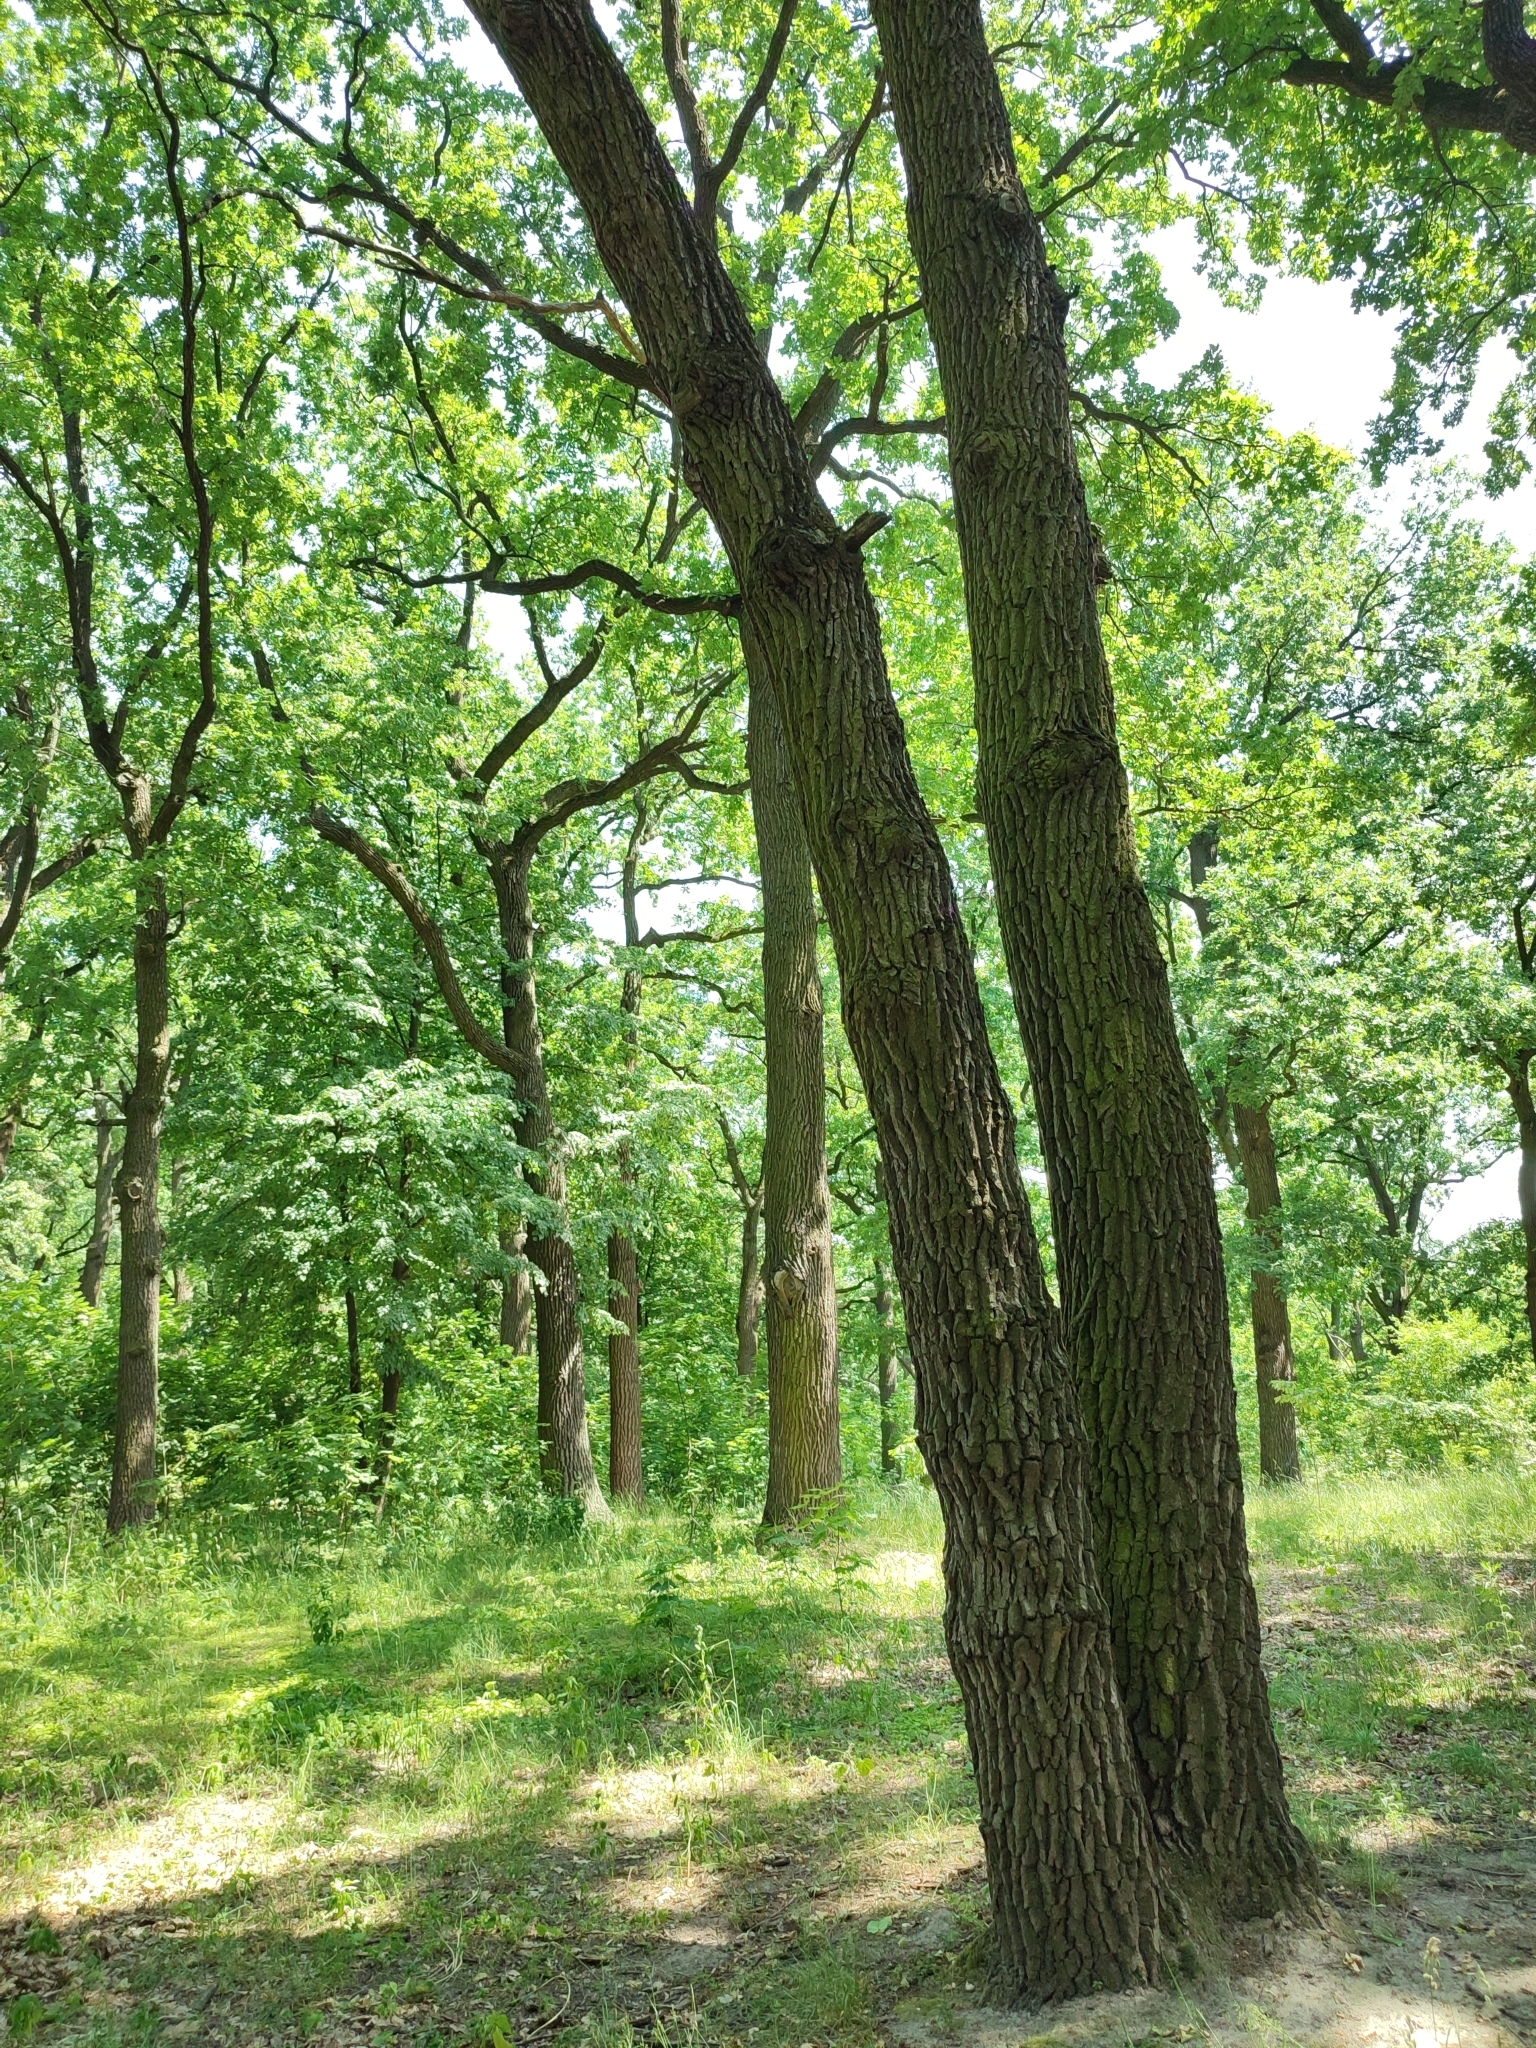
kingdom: Plantae
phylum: Tracheophyta
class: Magnoliopsida
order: Fagales
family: Fagaceae
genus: Quercus
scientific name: Quercus robur
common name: Pedunculate oak
